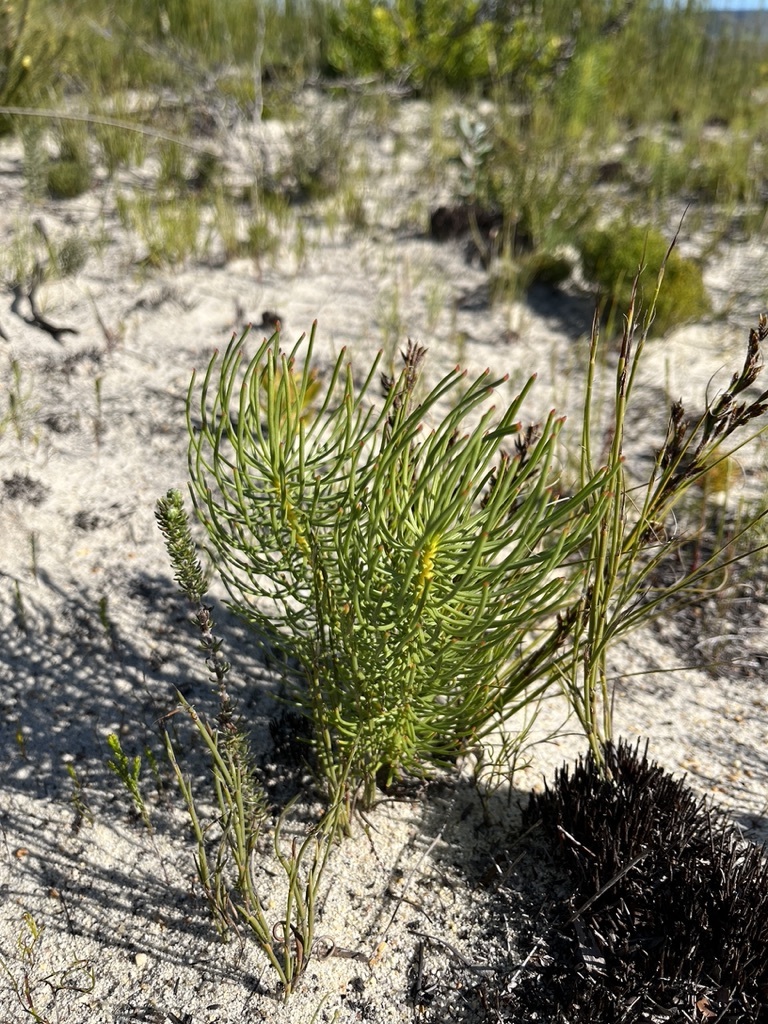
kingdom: Plantae
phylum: Tracheophyta
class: Magnoliopsida
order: Proteales
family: Proteaceae
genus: Leucadendron
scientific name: Leucadendron platyspermum
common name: Plate-seed conebush
